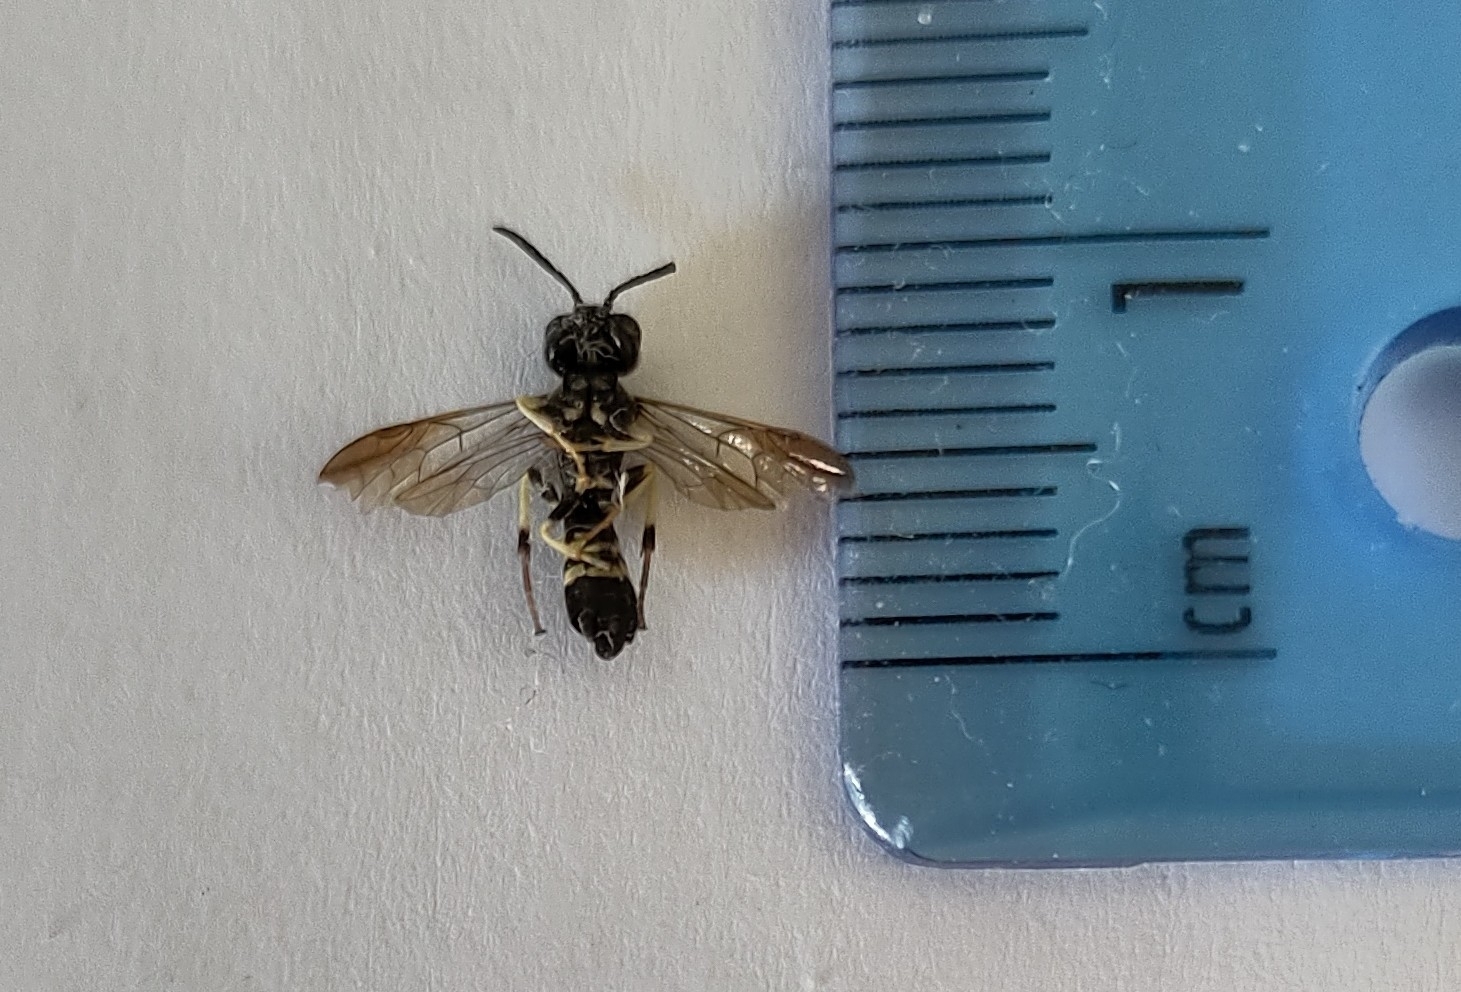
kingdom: Animalia
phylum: Arthropoda
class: Insecta
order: Hymenoptera
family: Tenthredinidae
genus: Allantus
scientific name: Allantus viennensis
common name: Sawfly
